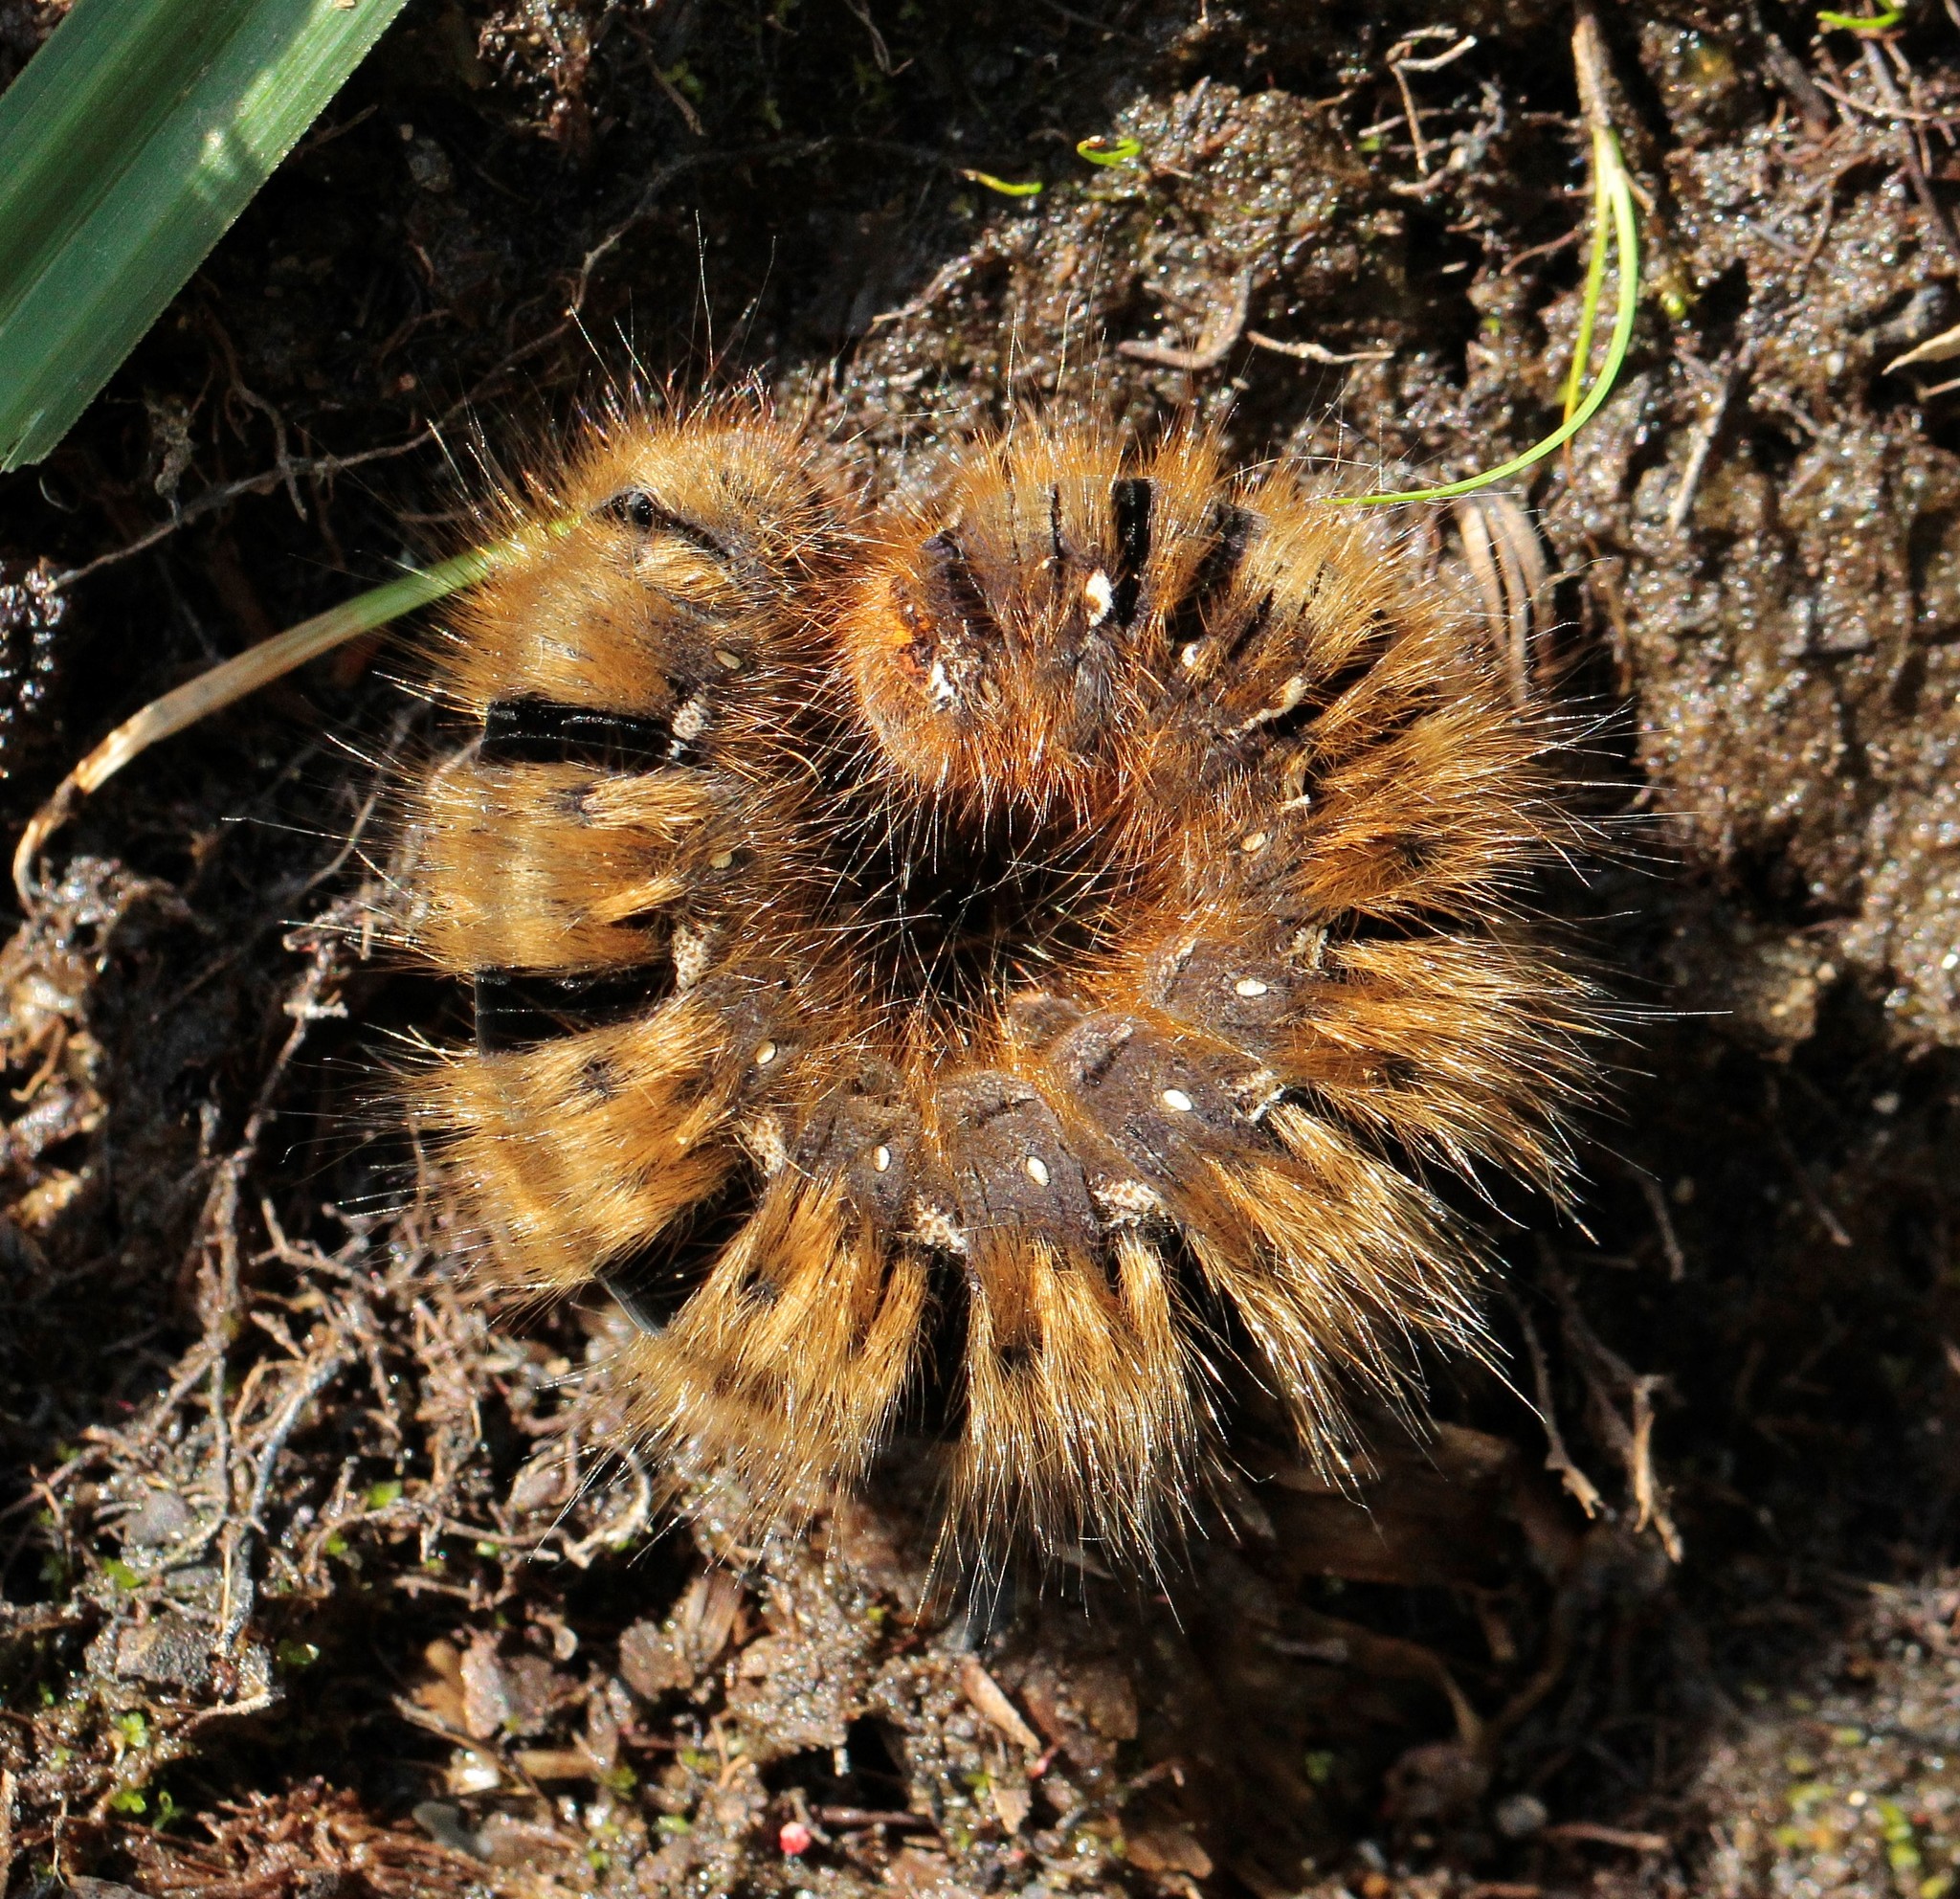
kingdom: Animalia
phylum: Arthropoda
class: Insecta
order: Lepidoptera
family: Lasiocampidae
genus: Lasiocampa
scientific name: Lasiocampa quercus
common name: Oak eggar
